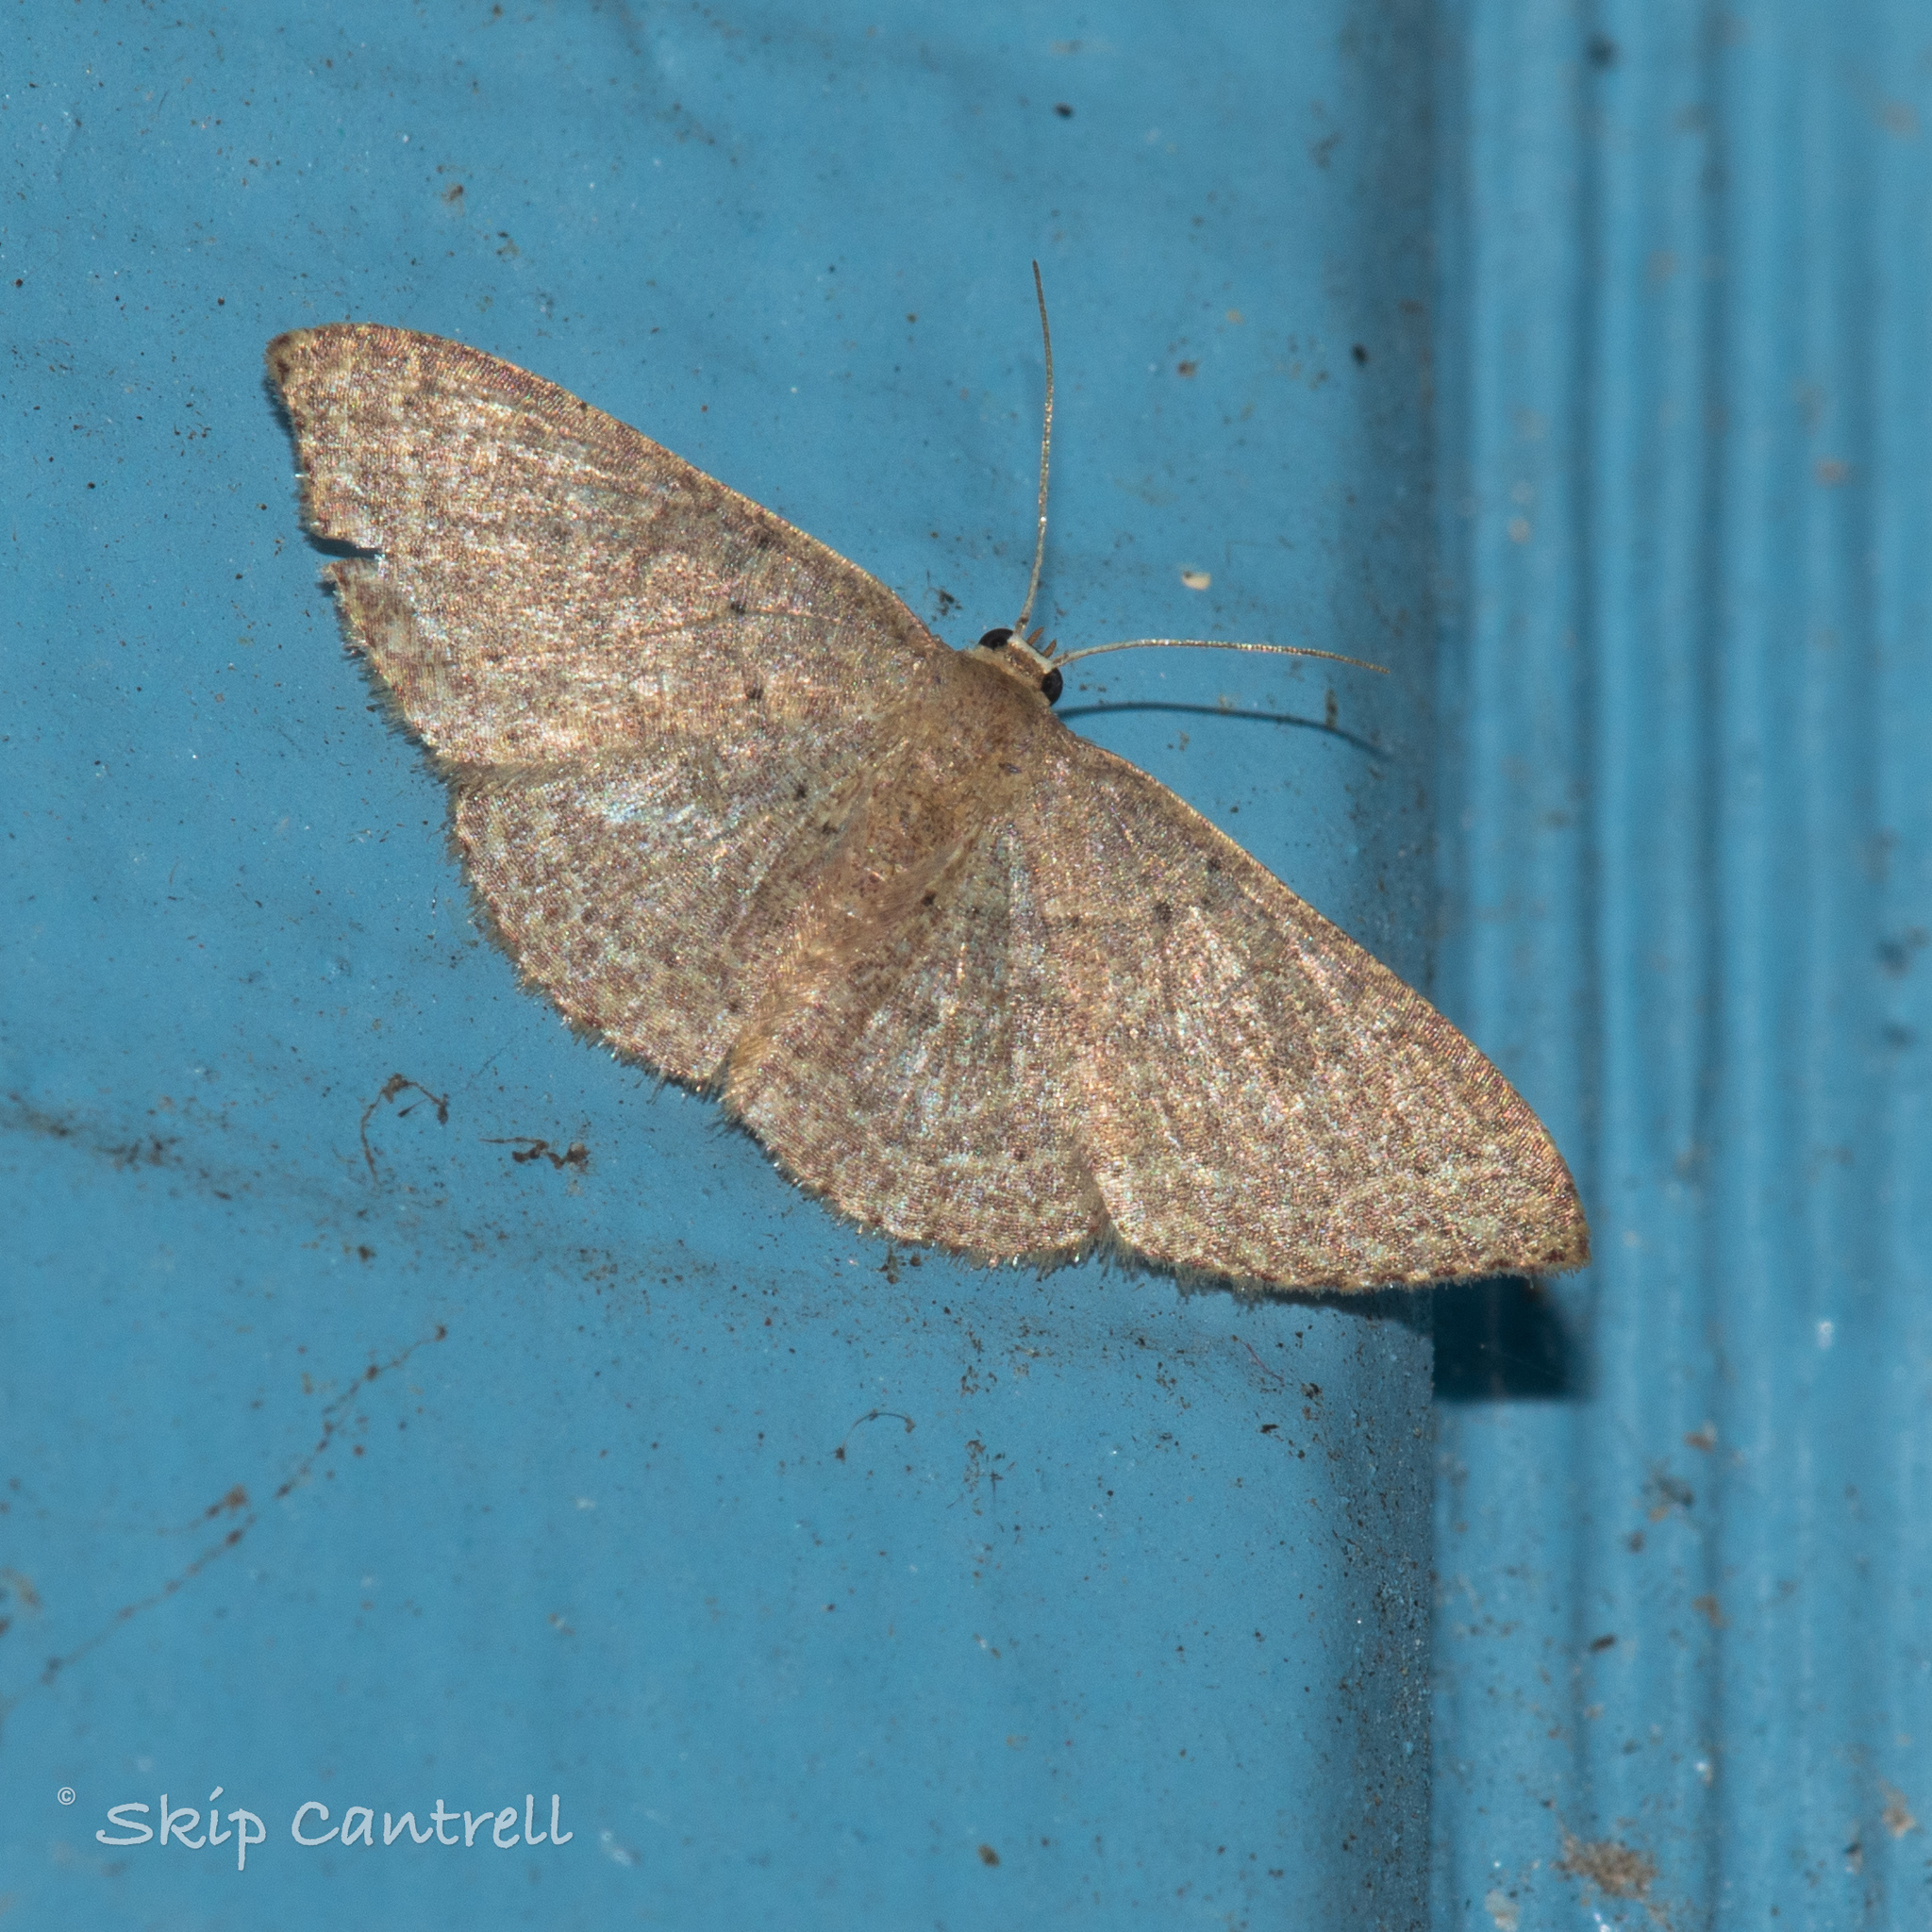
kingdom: Animalia
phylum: Arthropoda
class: Insecta
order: Lepidoptera
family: Geometridae
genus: Pleuroprucha
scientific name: Pleuroprucha insulsaria
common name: Common tan wave
